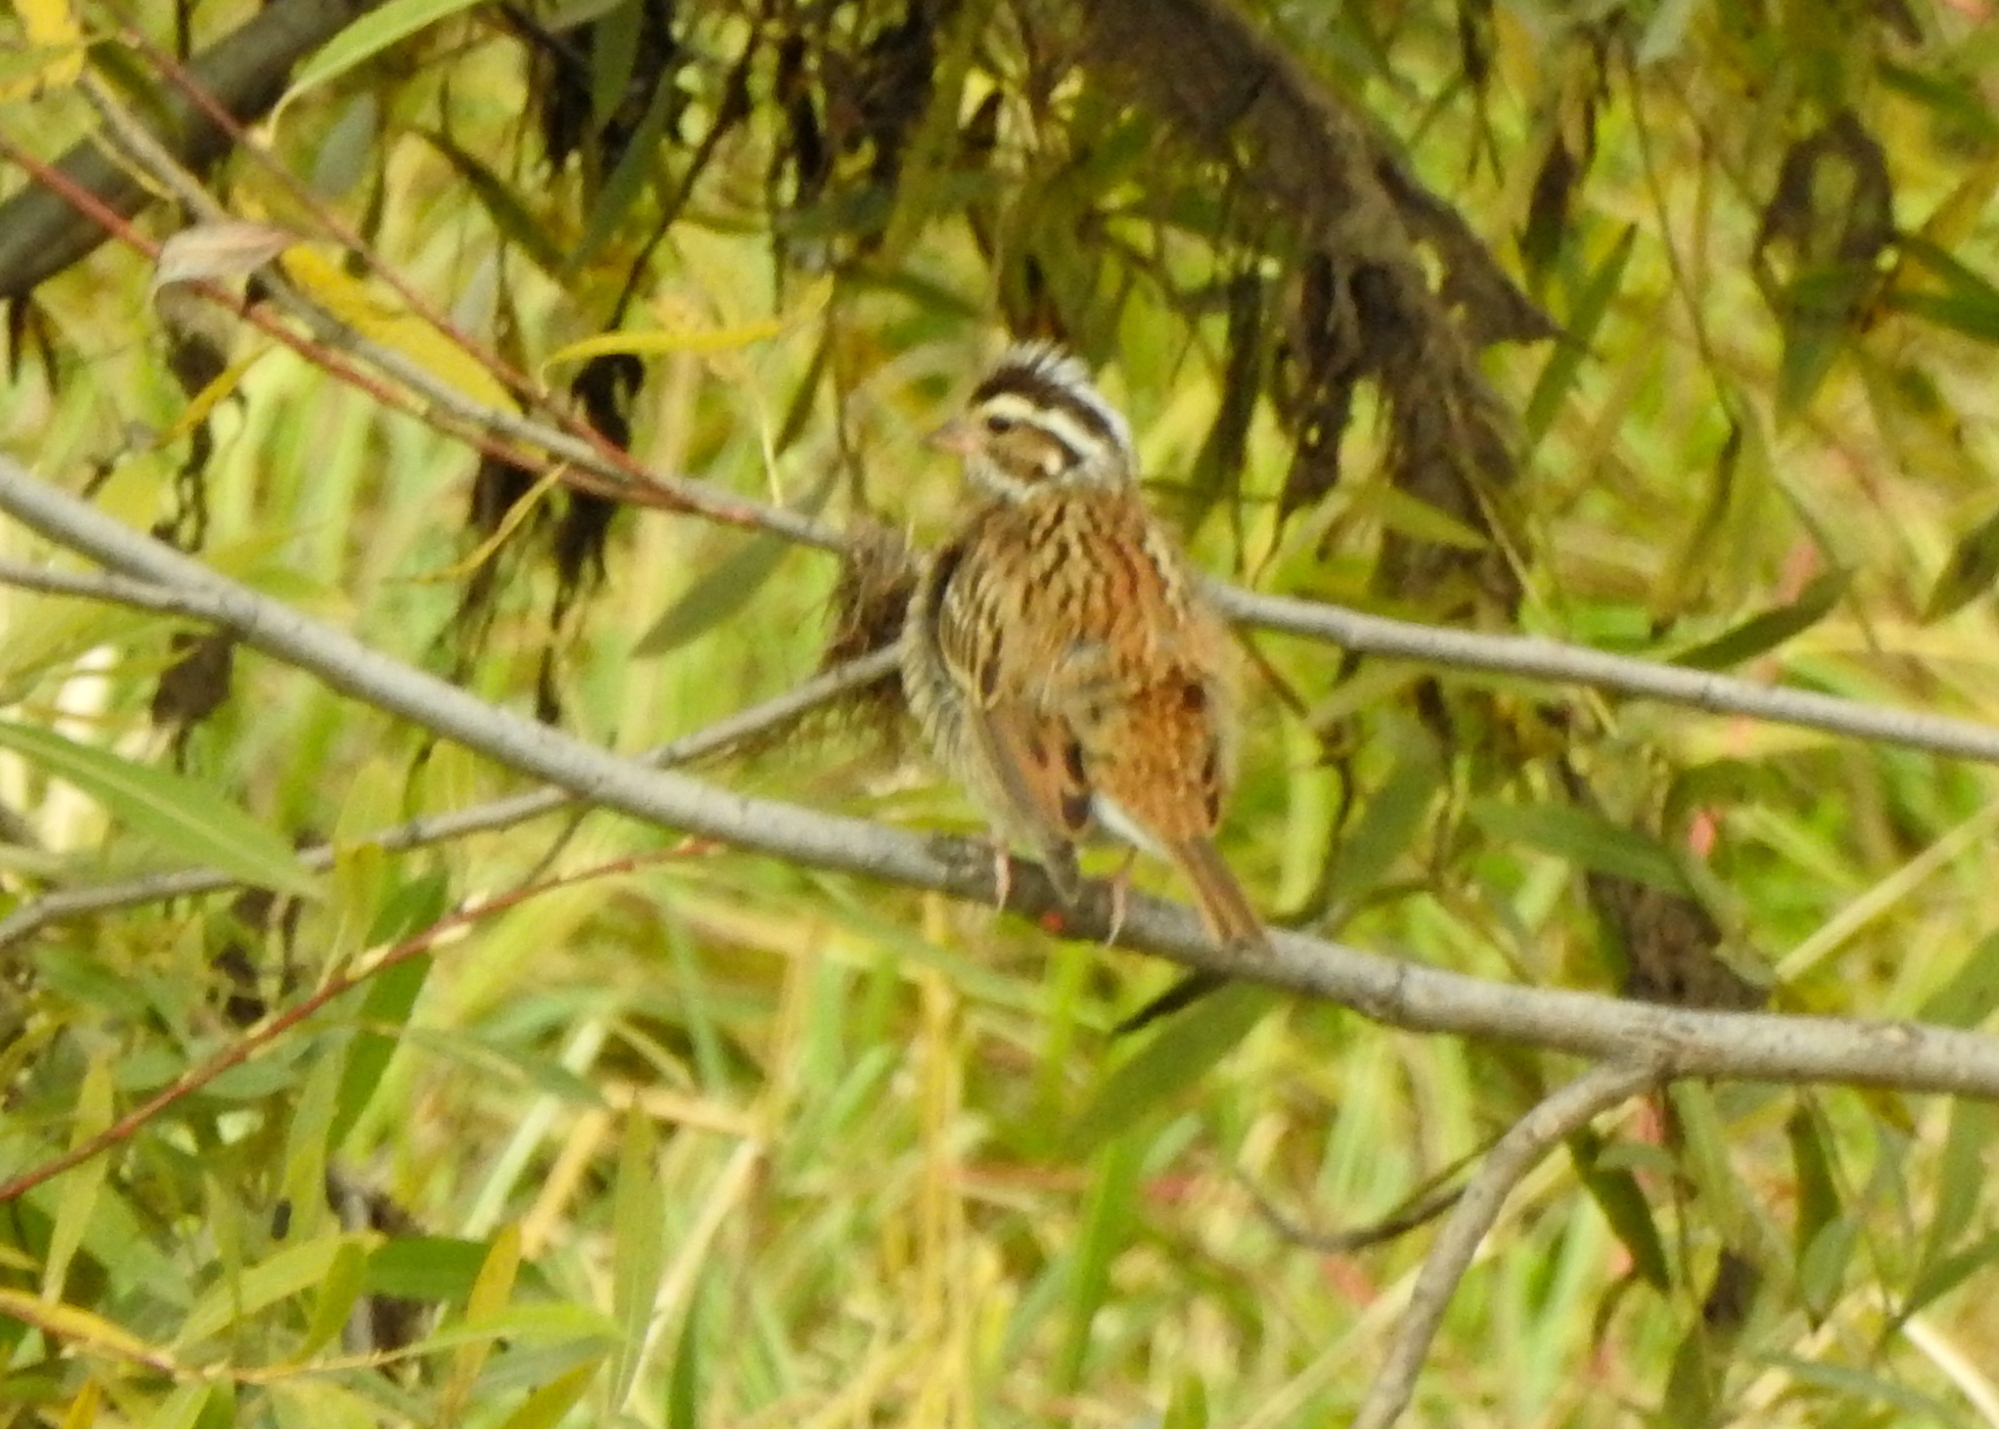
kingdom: Animalia
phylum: Chordata
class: Aves
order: Passeriformes
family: Emberizidae
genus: Emberiza
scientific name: Emberiza chrysophrys
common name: Yellow-browed bunting
